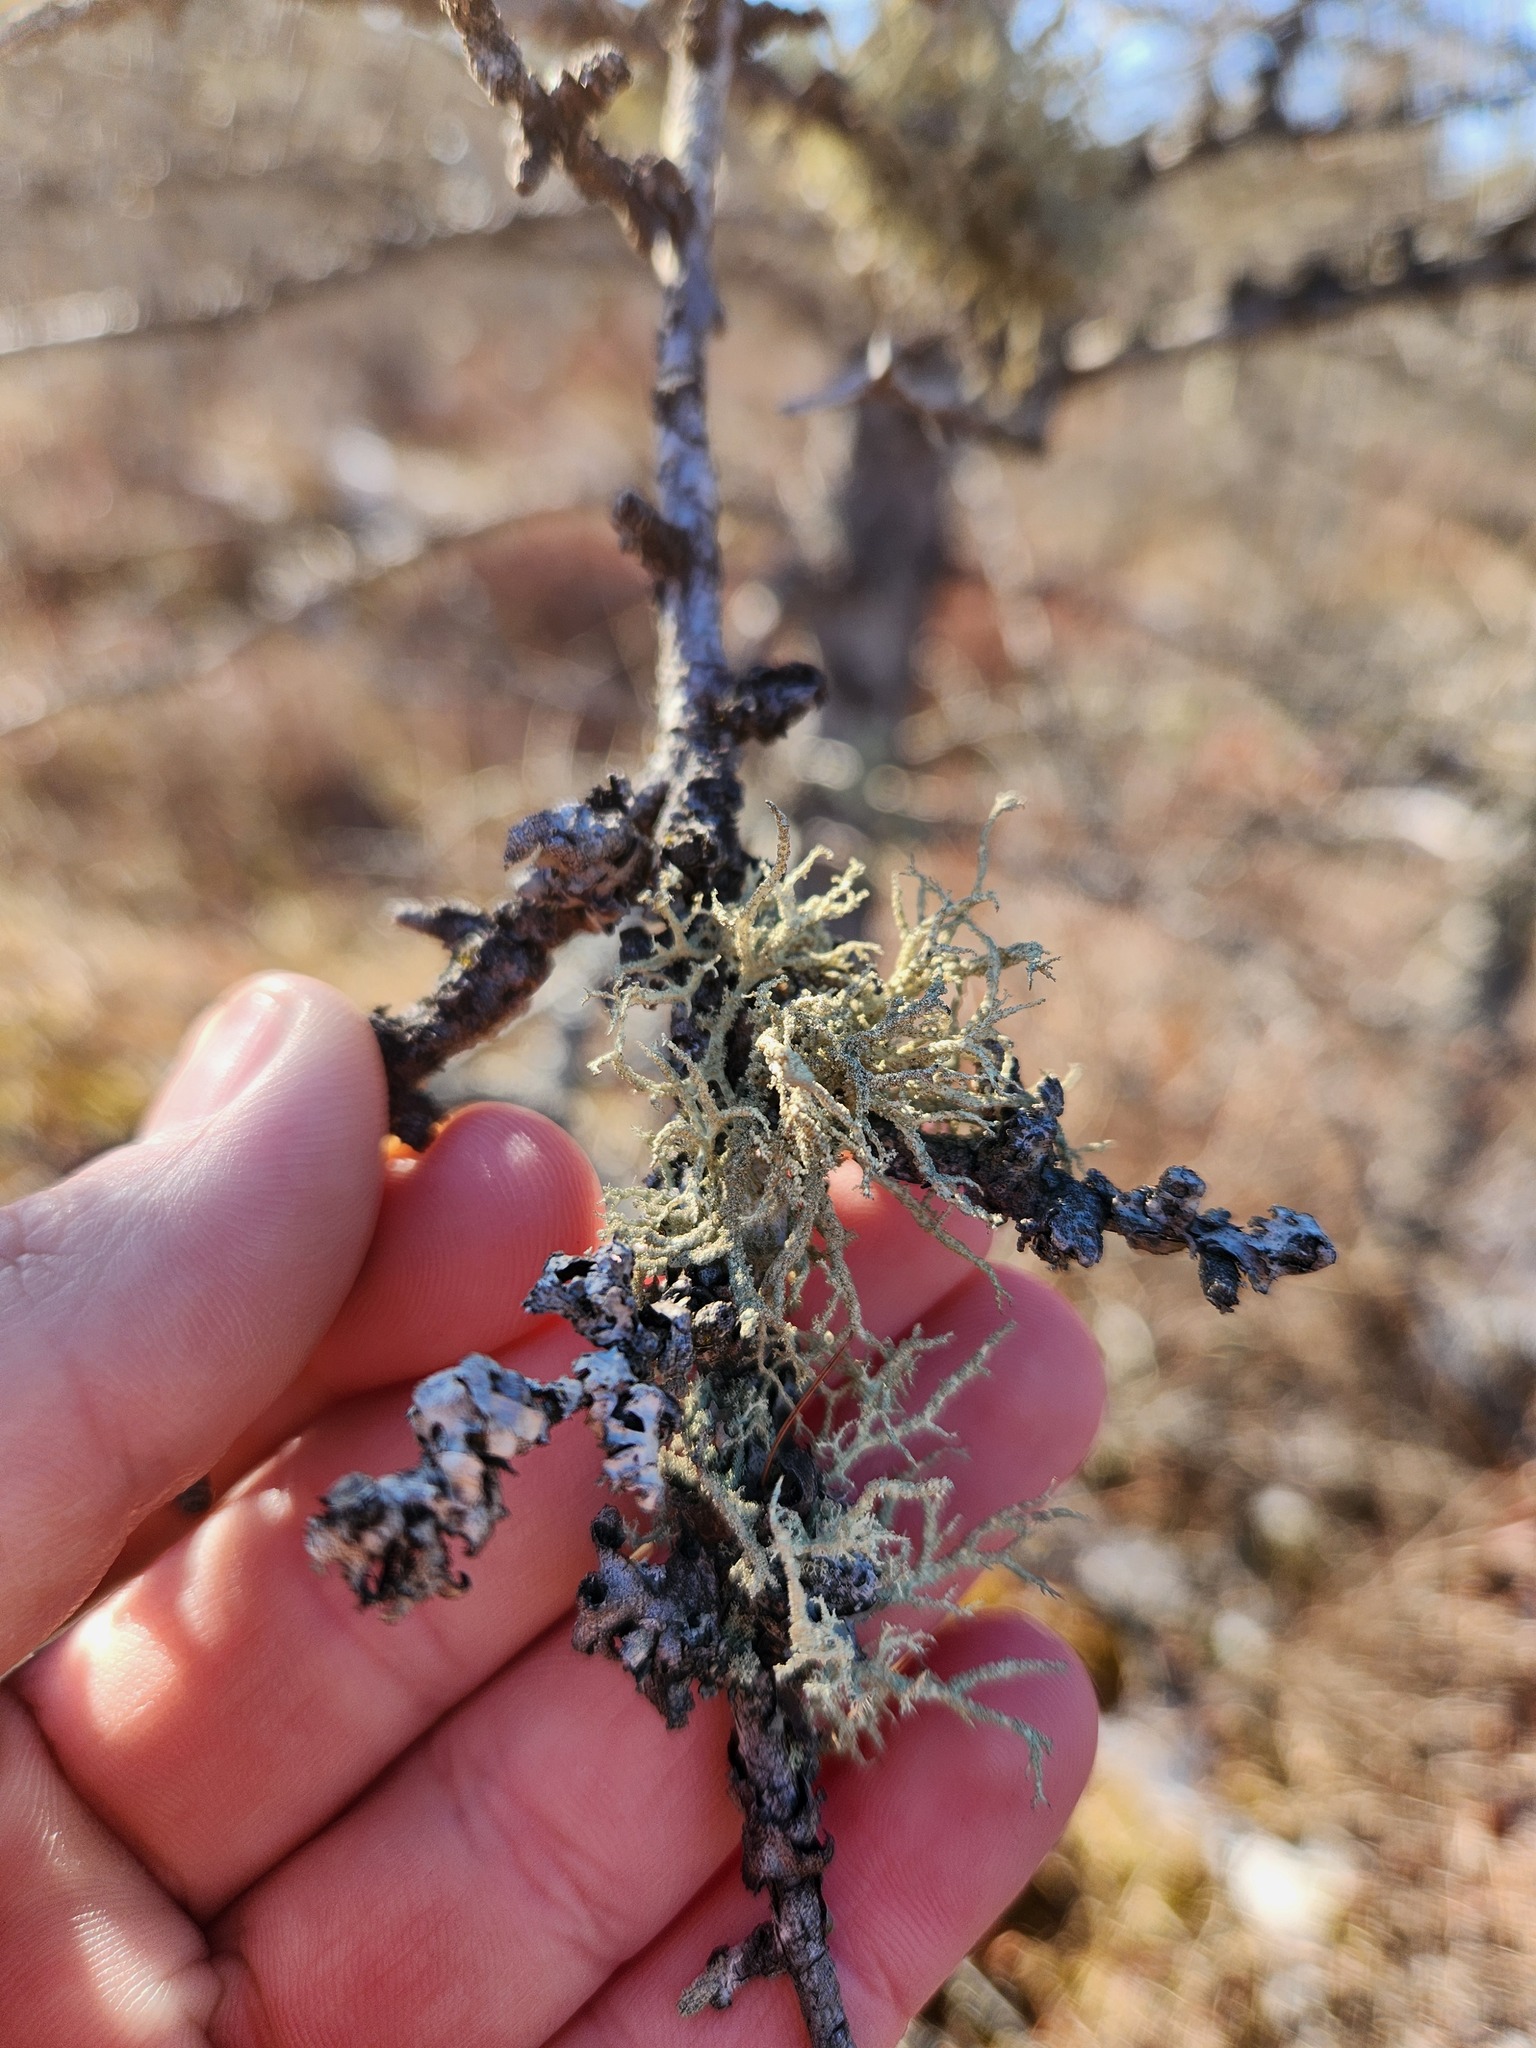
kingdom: Fungi
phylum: Ascomycota
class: Lecanoromycetes
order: Lecanorales
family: Parmeliaceae
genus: Evernia
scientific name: Evernia mesomorpha
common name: Boreal oak moss lichen
